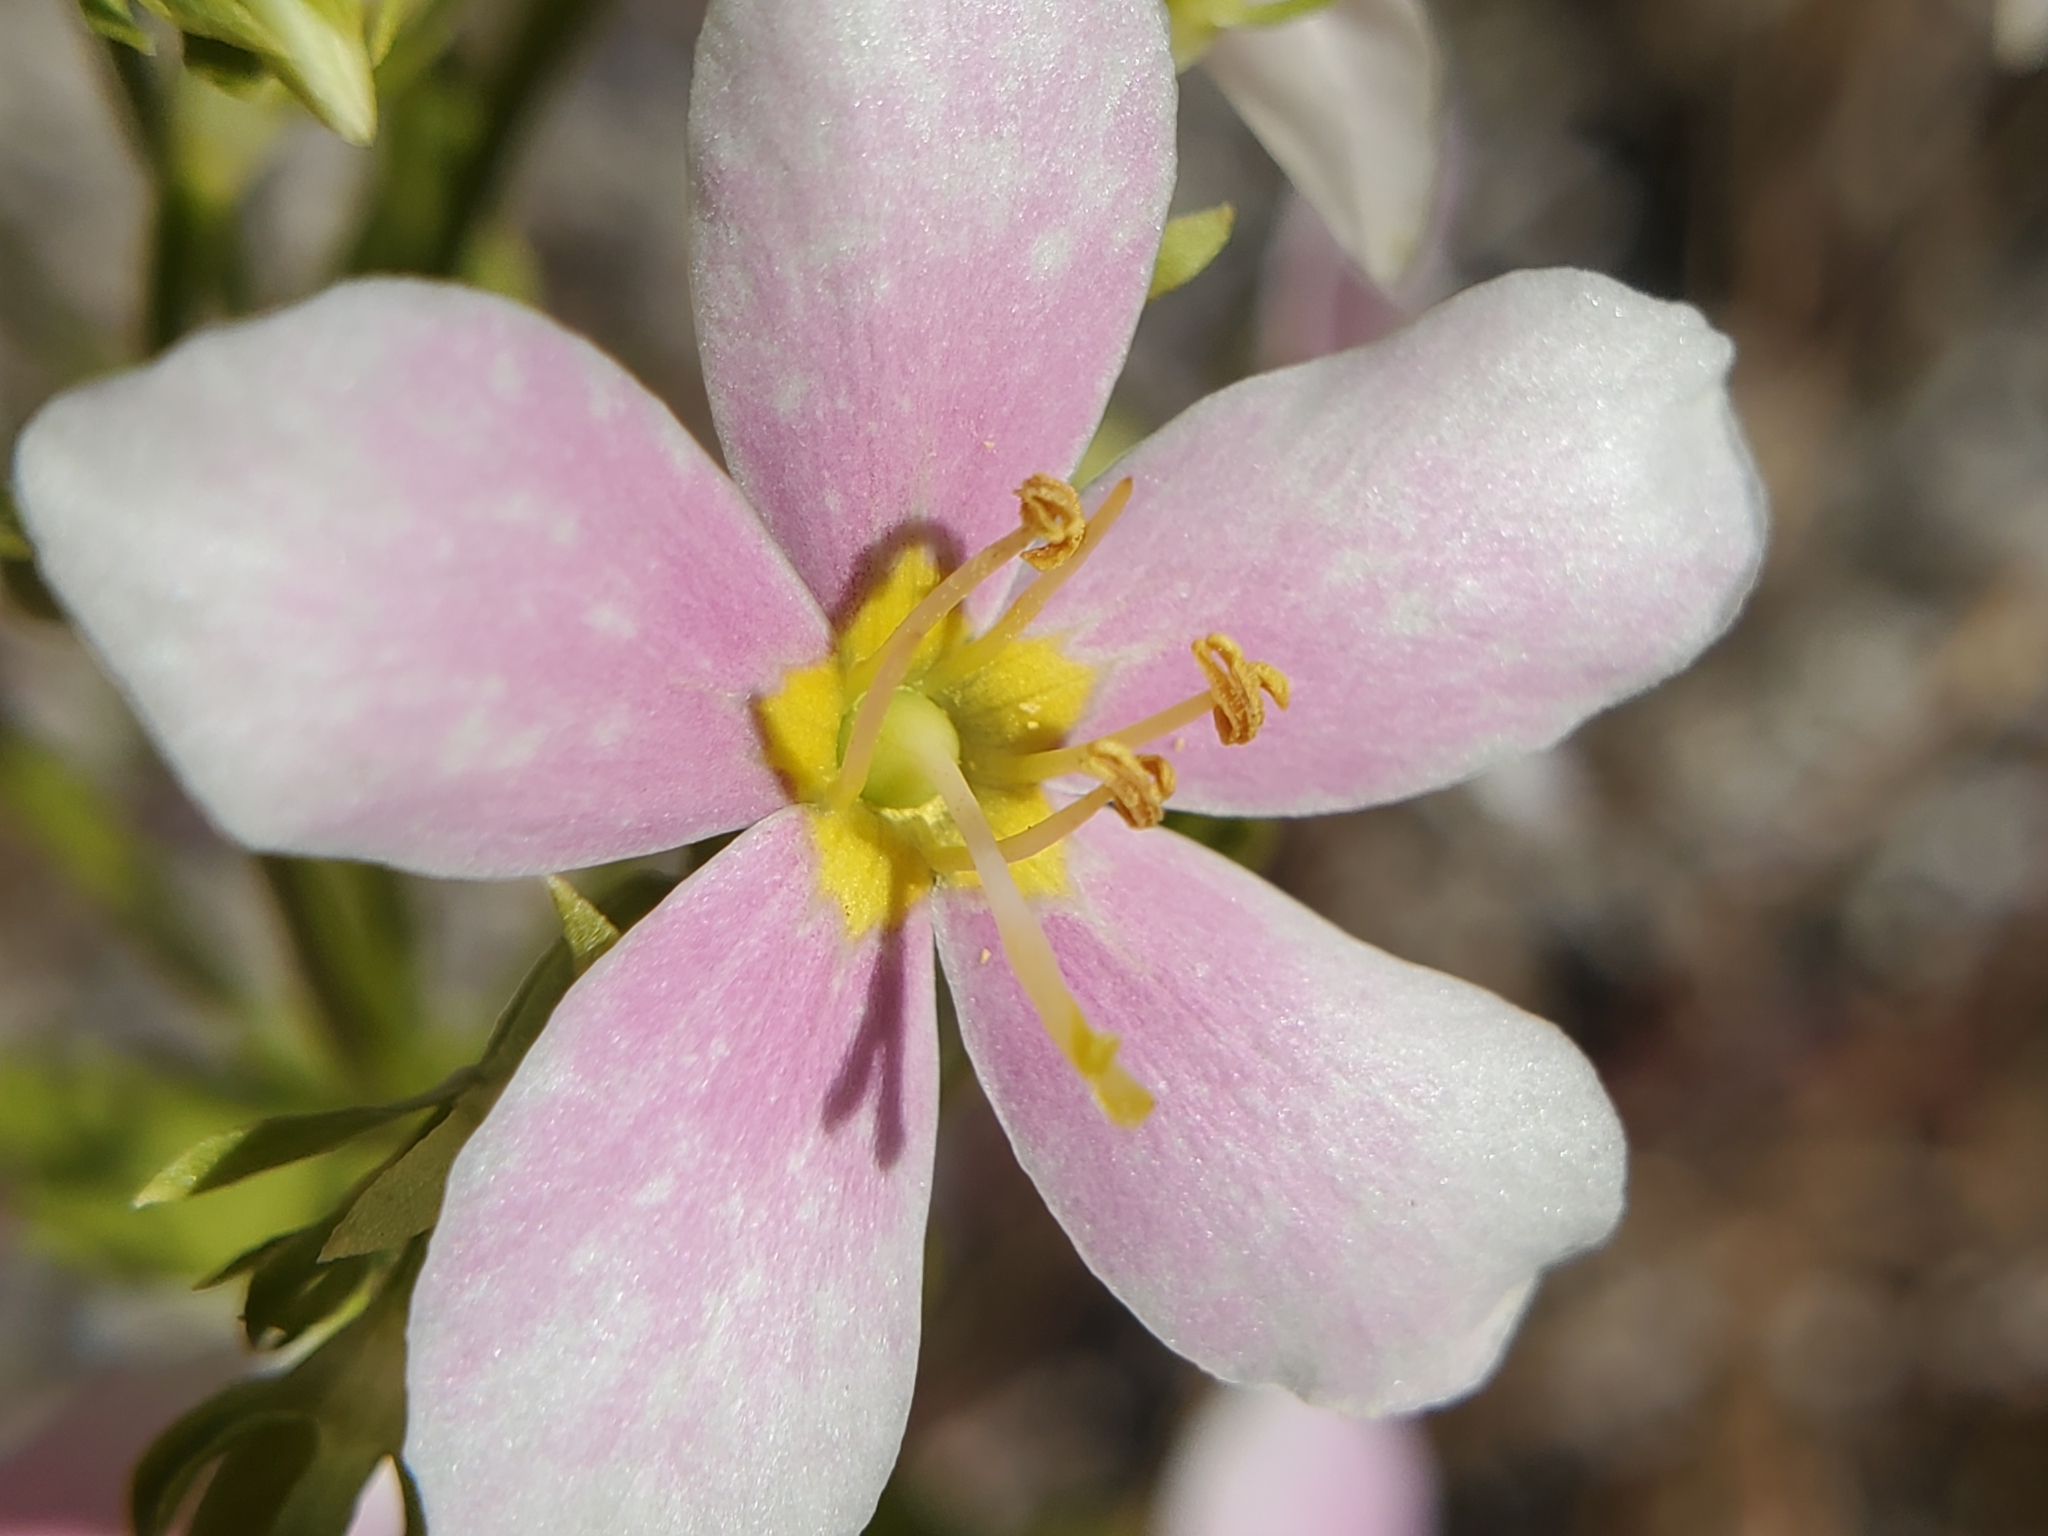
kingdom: Plantae
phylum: Tracheophyta
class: Magnoliopsida
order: Gentianales
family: Gentianaceae
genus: Sabatia
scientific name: Sabatia angularis
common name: Rose-pink
